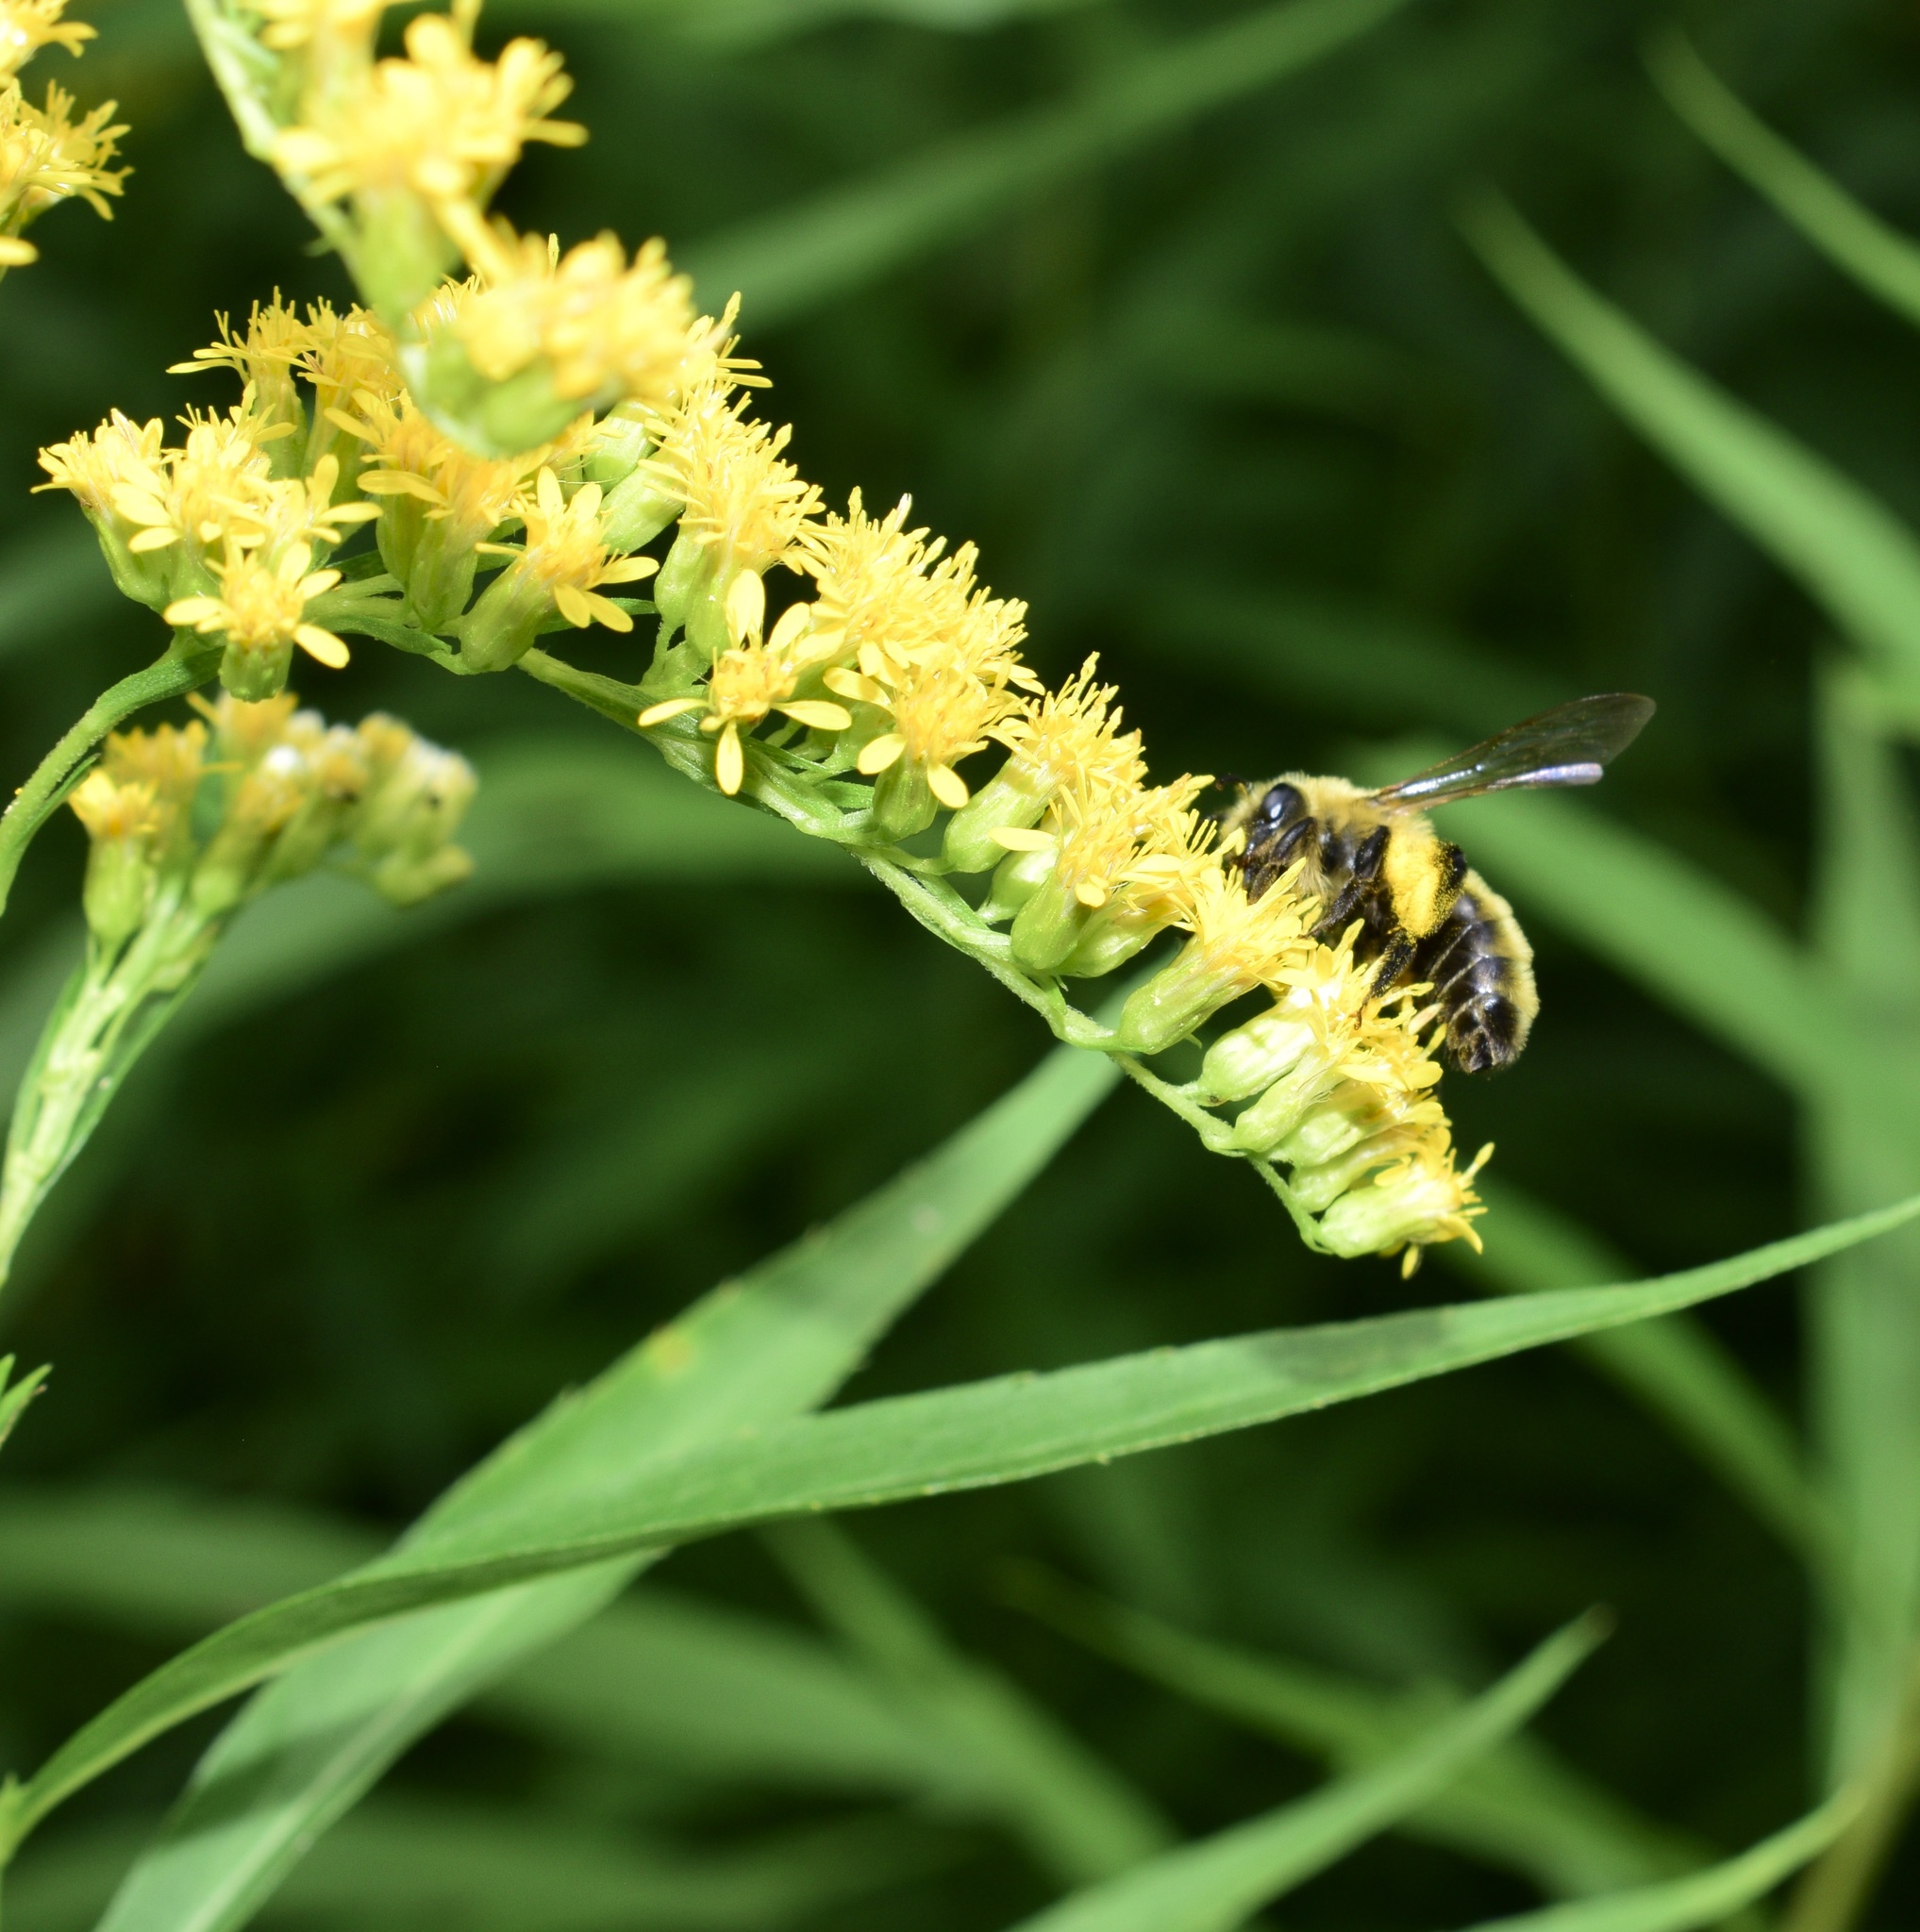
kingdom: Animalia
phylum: Arthropoda
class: Insecta
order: Hymenoptera
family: Andrenidae
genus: Andrena
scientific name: Andrena hirticincta
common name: Hairy-banded mining bee
